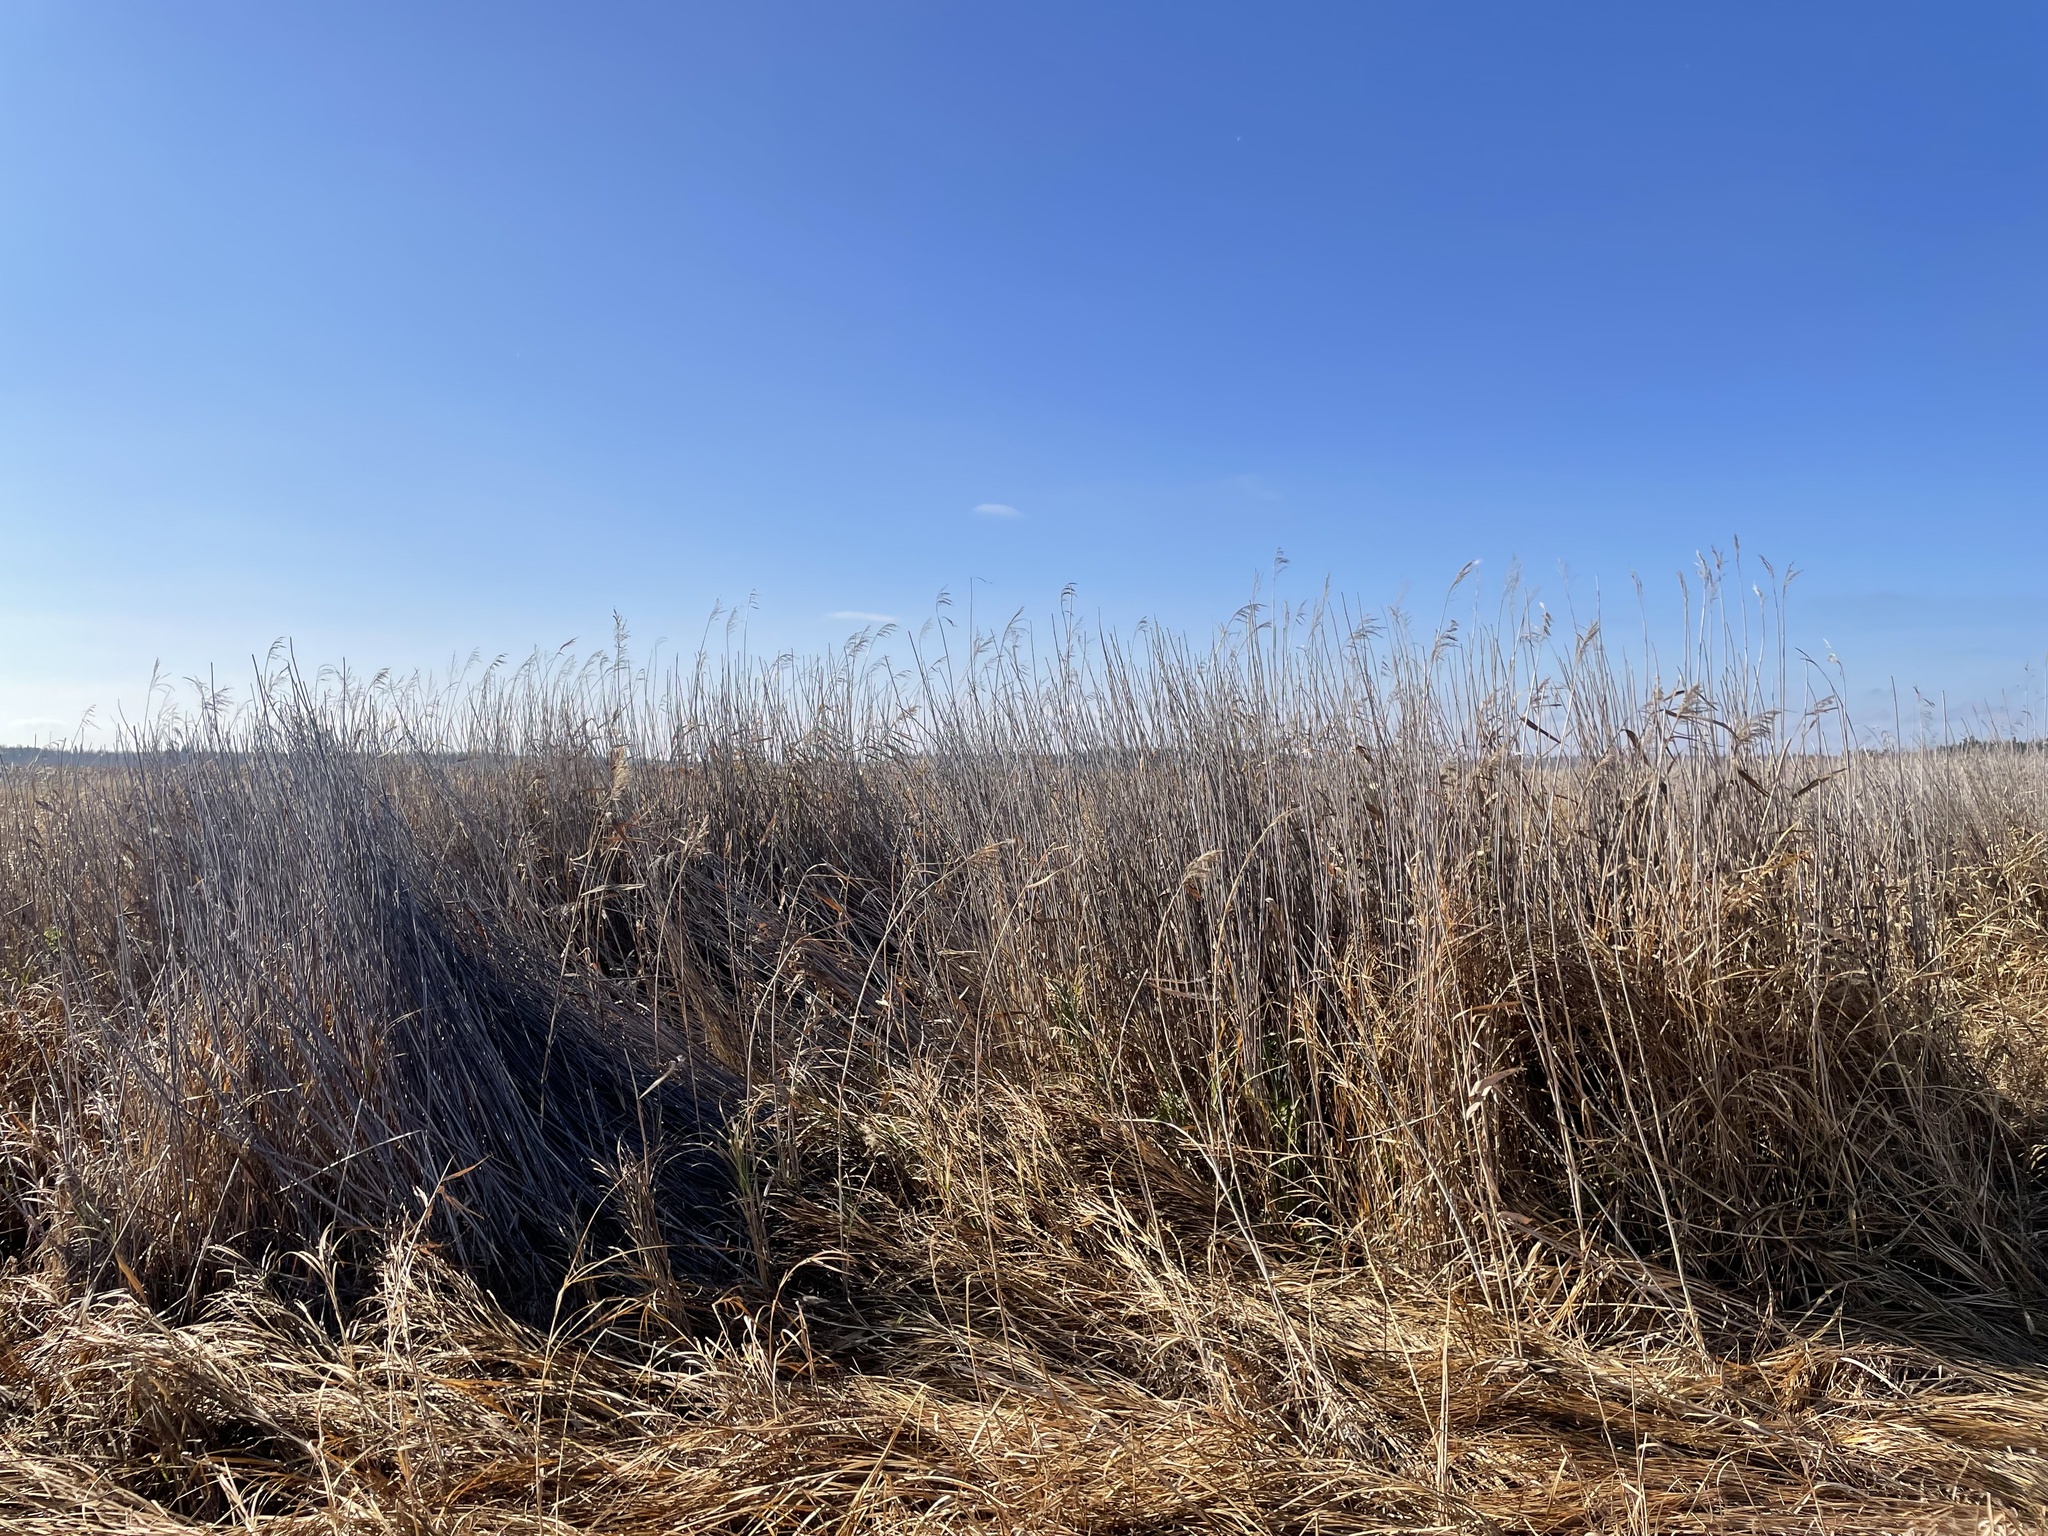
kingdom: Plantae
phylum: Tracheophyta
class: Liliopsida
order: Poales
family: Poaceae
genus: Phragmites
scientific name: Phragmites australis
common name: Common reed
